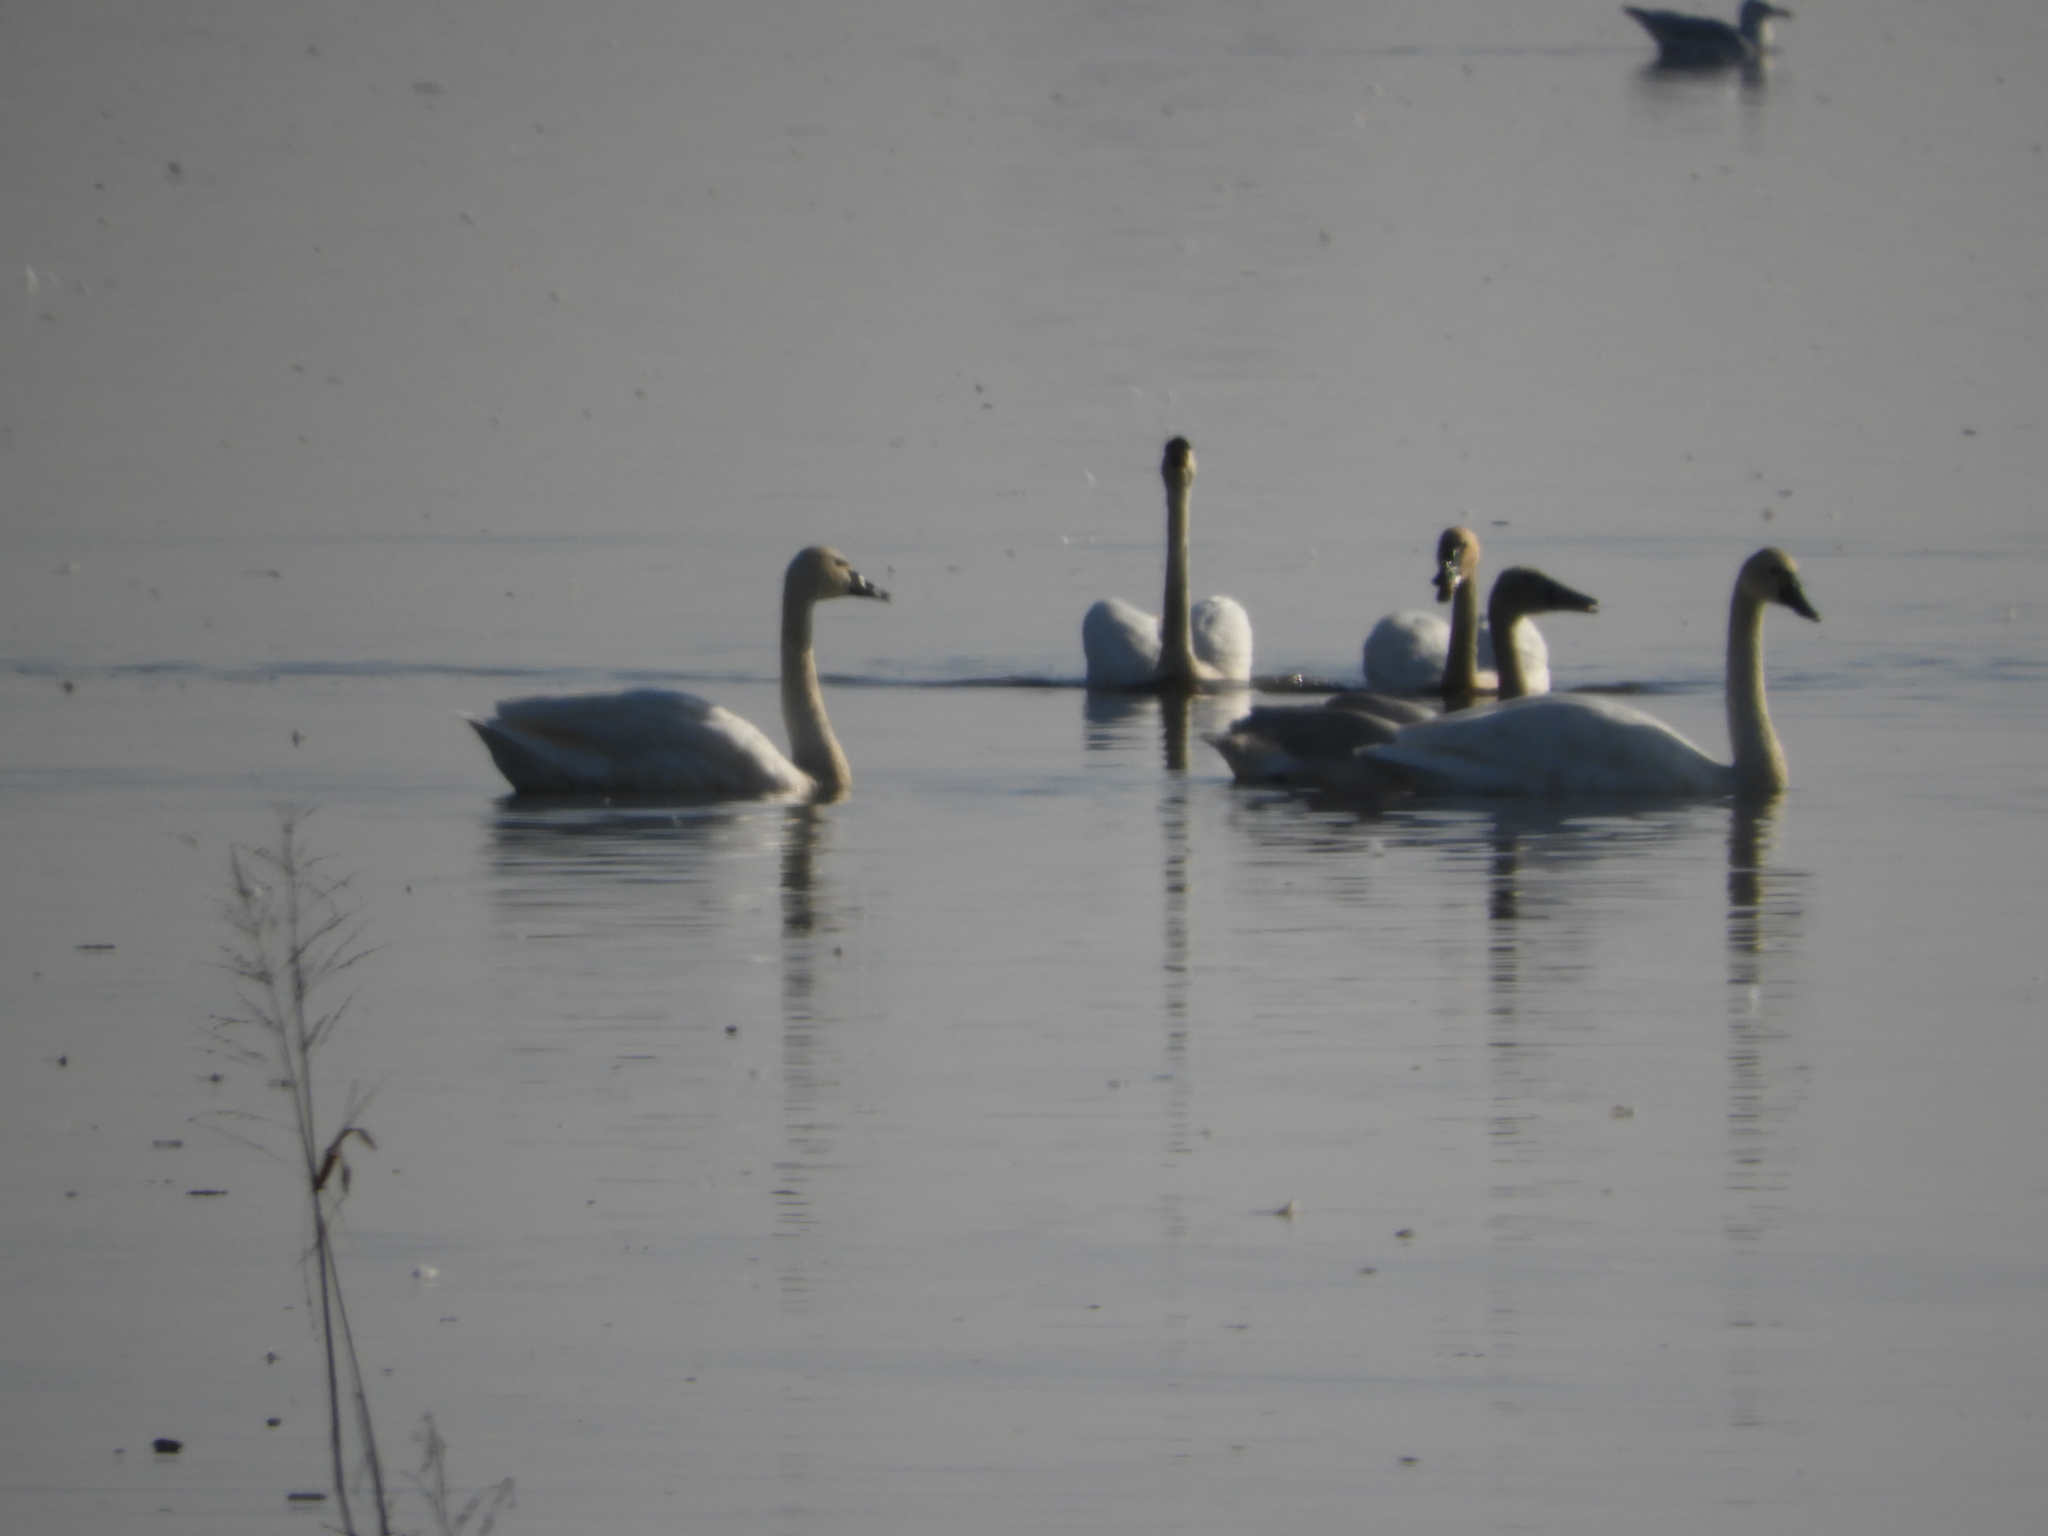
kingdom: Animalia
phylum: Chordata
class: Aves
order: Anseriformes
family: Anatidae
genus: Cygnus
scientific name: Cygnus columbianus
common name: Tundra swan
